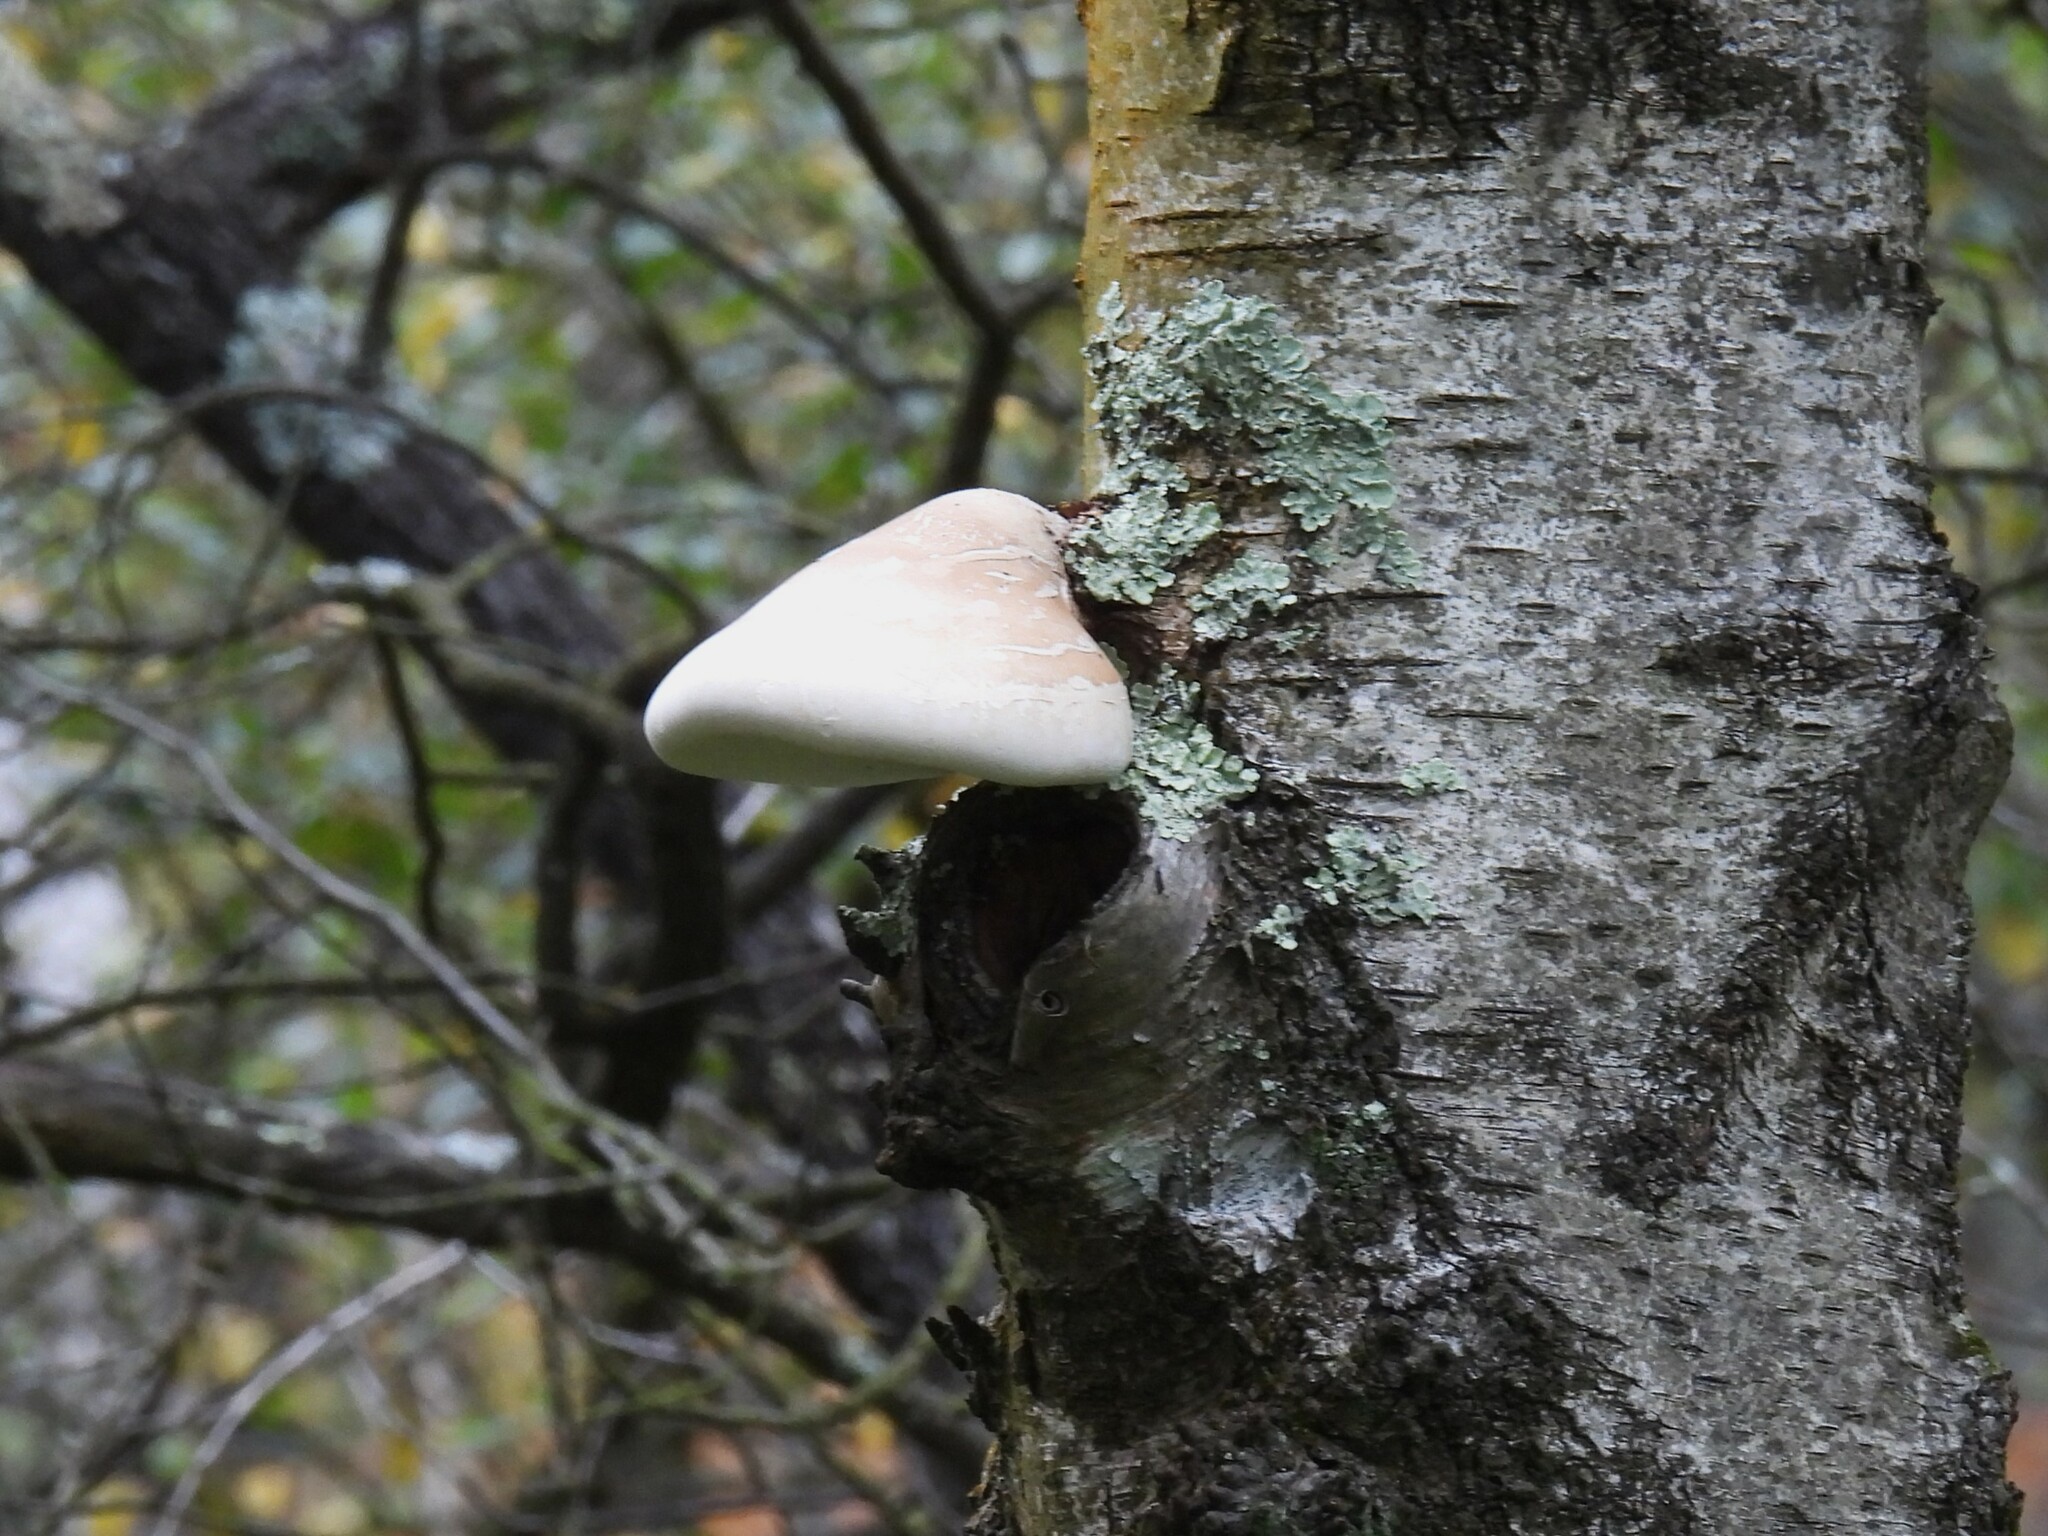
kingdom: Fungi
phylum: Basidiomycota
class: Agaricomycetes
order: Polyporales
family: Fomitopsidaceae
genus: Fomitopsis
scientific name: Fomitopsis betulina
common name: Birch polypore
